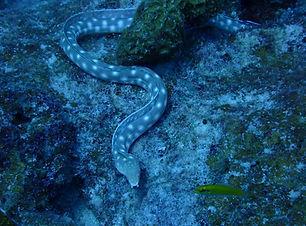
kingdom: Animalia
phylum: Chordata
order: Anguilliformes
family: Ophichthidae
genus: Myrichthys
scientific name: Myrichthys breviceps
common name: Sharptail eel
